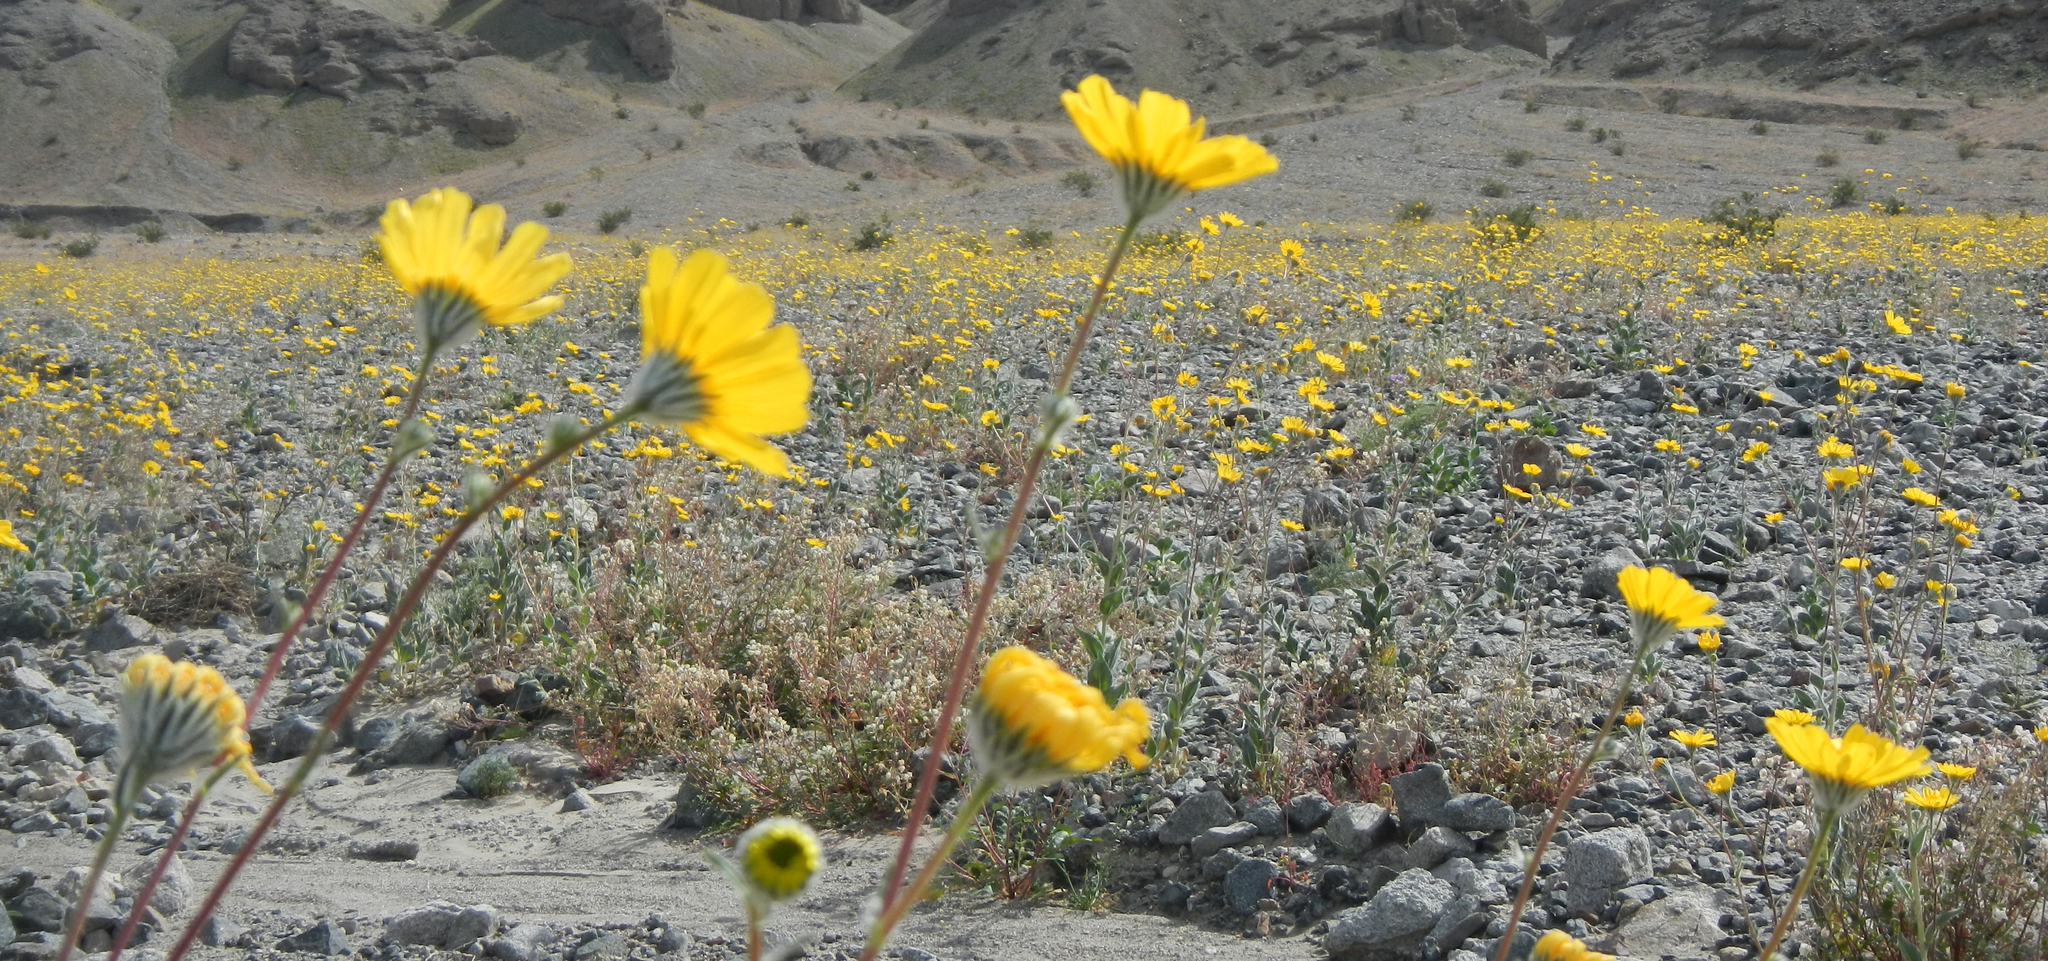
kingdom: Plantae
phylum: Tracheophyta
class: Magnoliopsida
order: Asterales
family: Asteraceae
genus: Geraea
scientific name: Geraea canescens
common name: Desert-gold
